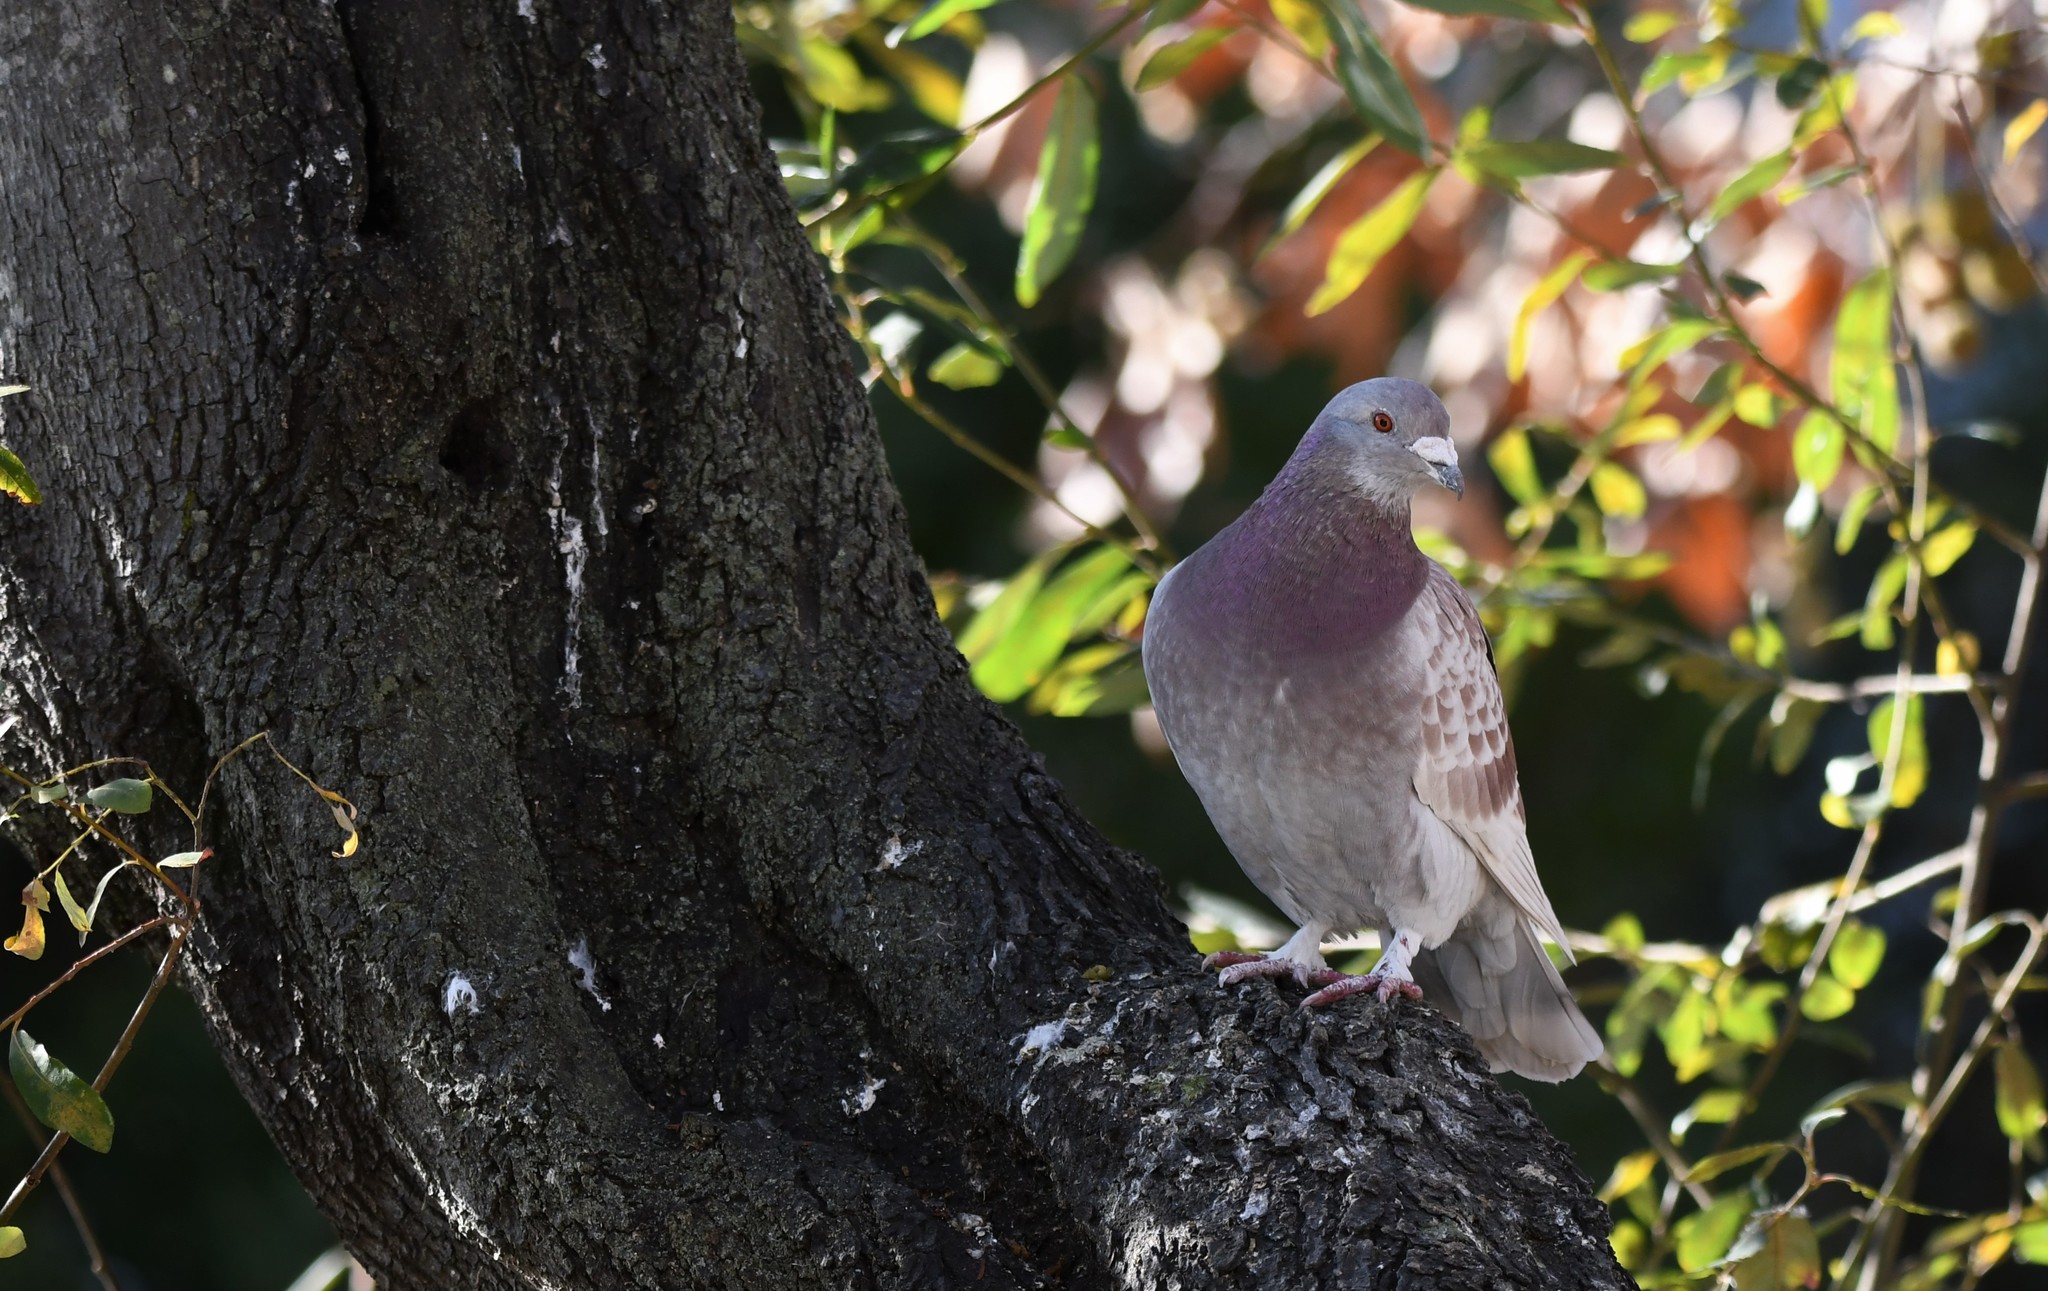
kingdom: Animalia
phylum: Chordata
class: Aves
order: Columbiformes
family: Columbidae
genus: Columba
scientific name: Columba livia
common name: Rock pigeon
